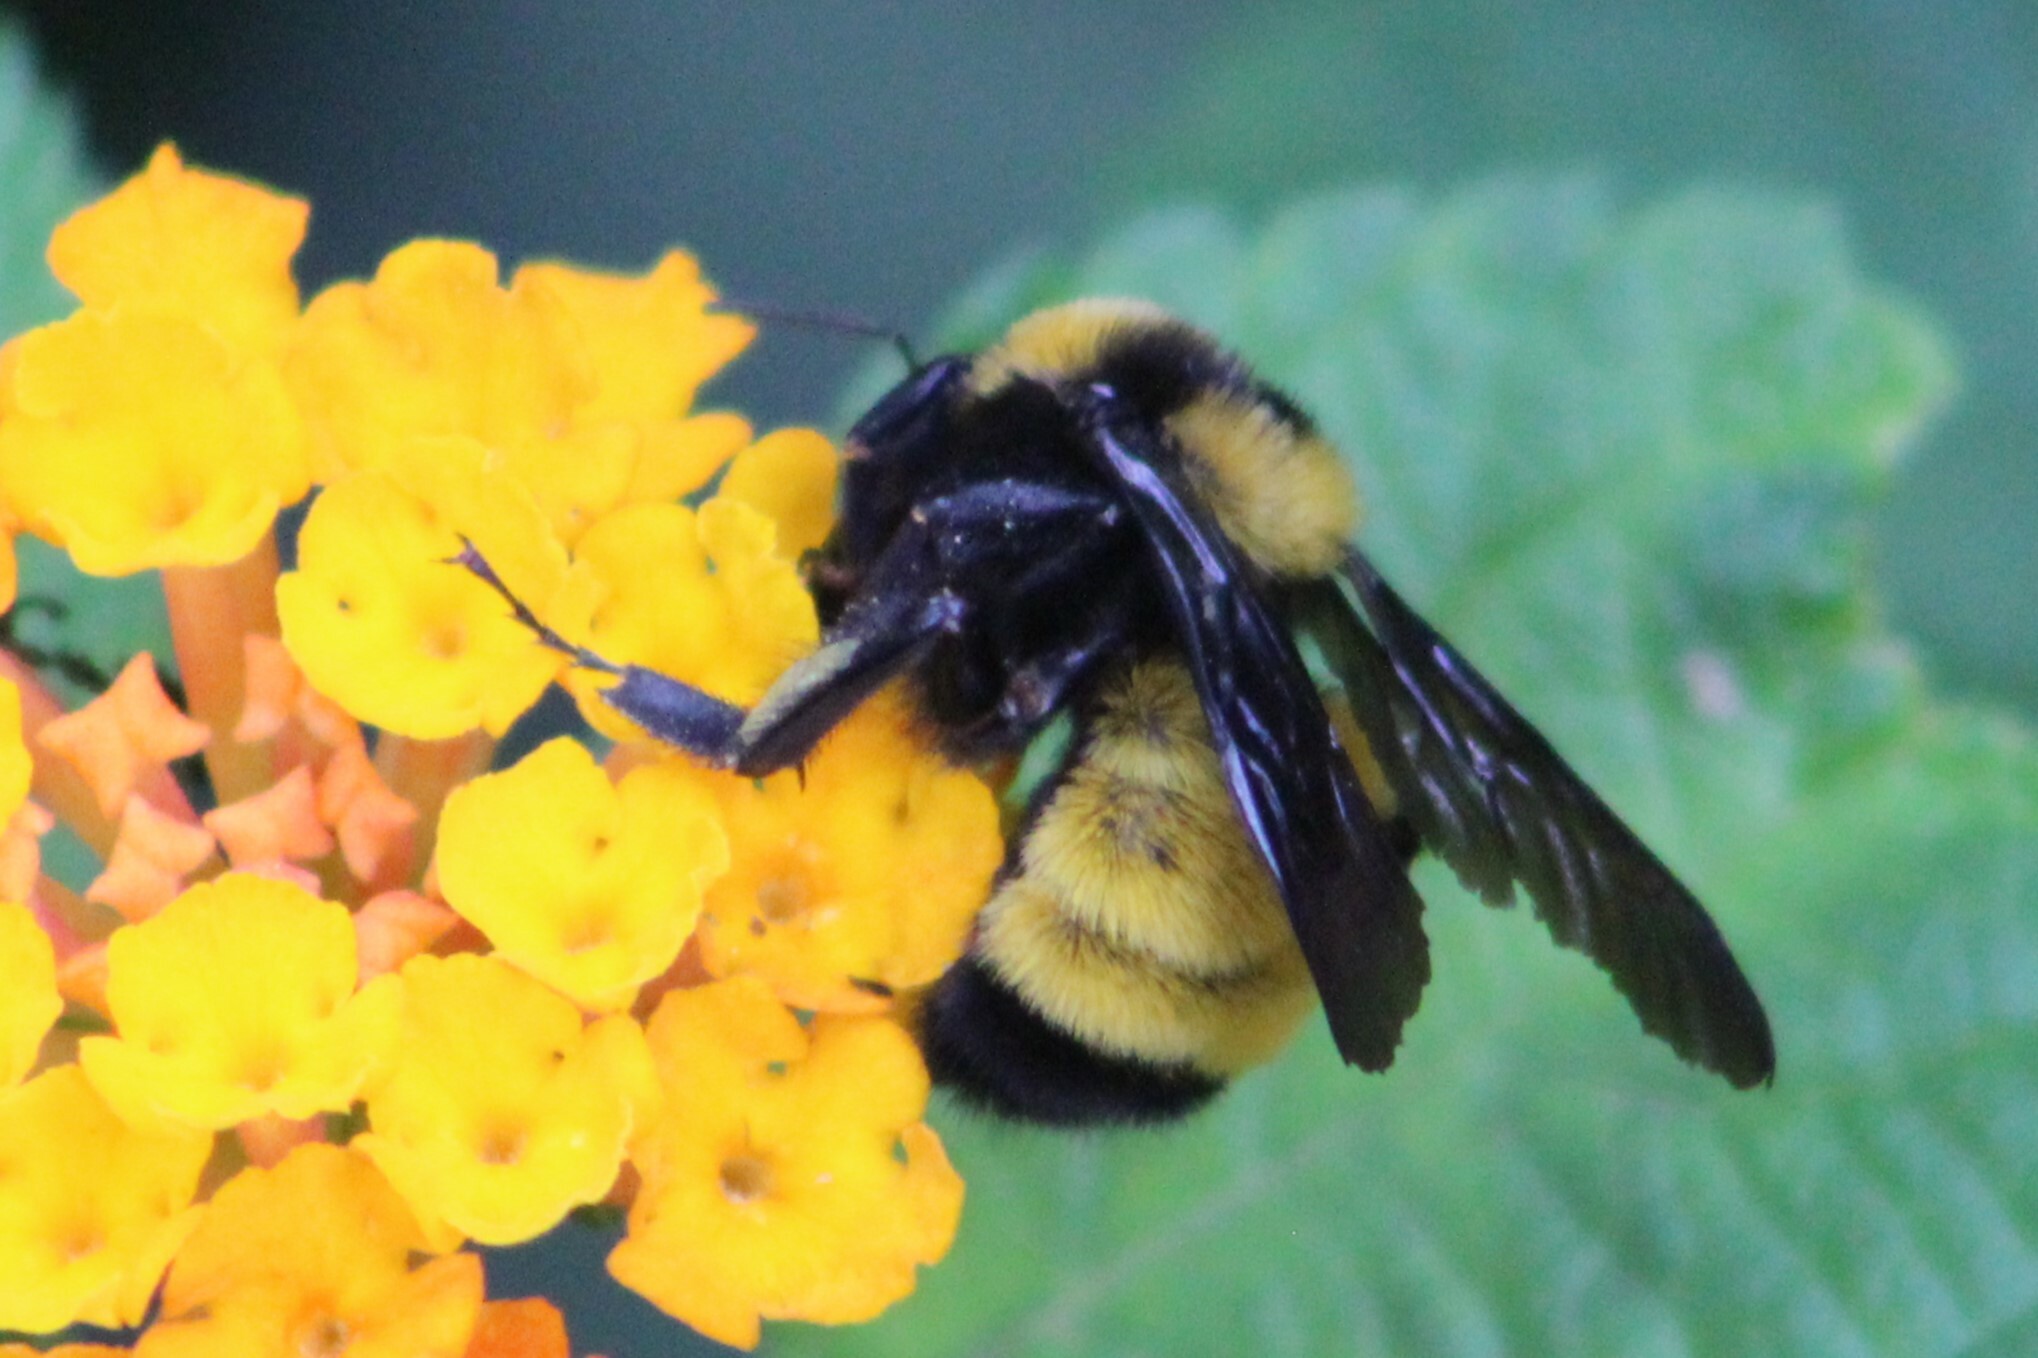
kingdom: Animalia
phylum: Arthropoda
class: Insecta
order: Hymenoptera
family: Apidae
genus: Bombus
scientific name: Bombus sonorus
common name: Sonoran bumble bee
